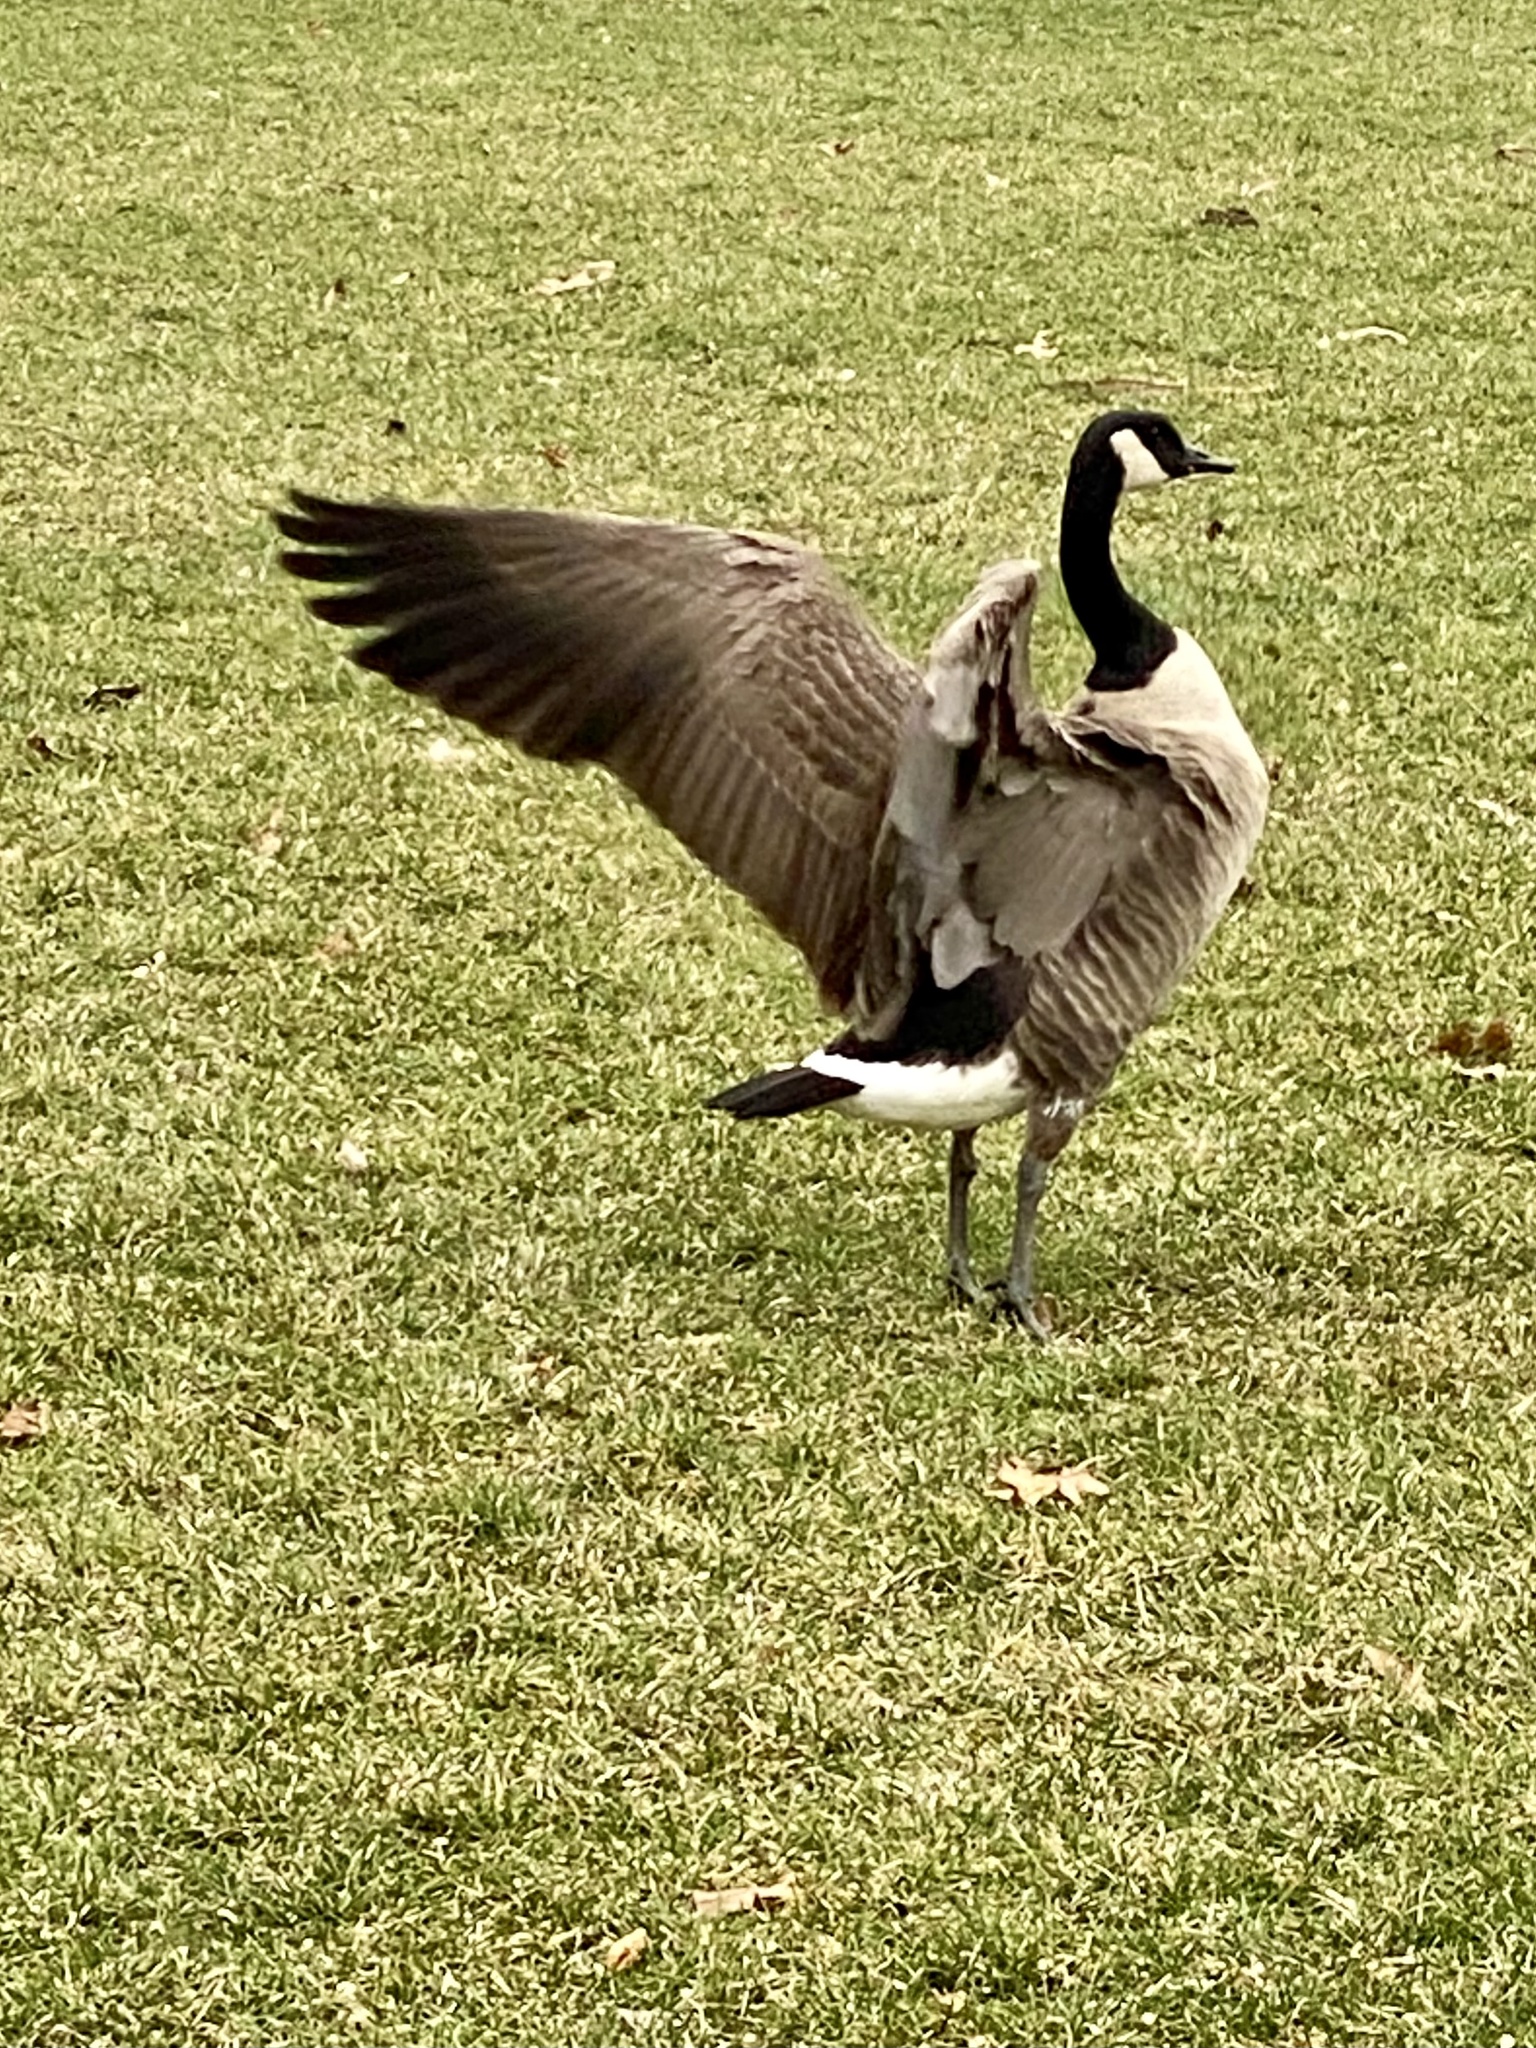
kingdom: Animalia
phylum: Chordata
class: Aves
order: Anseriformes
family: Anatidae
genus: Branta
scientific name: Branta canadensis
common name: Canada goose
